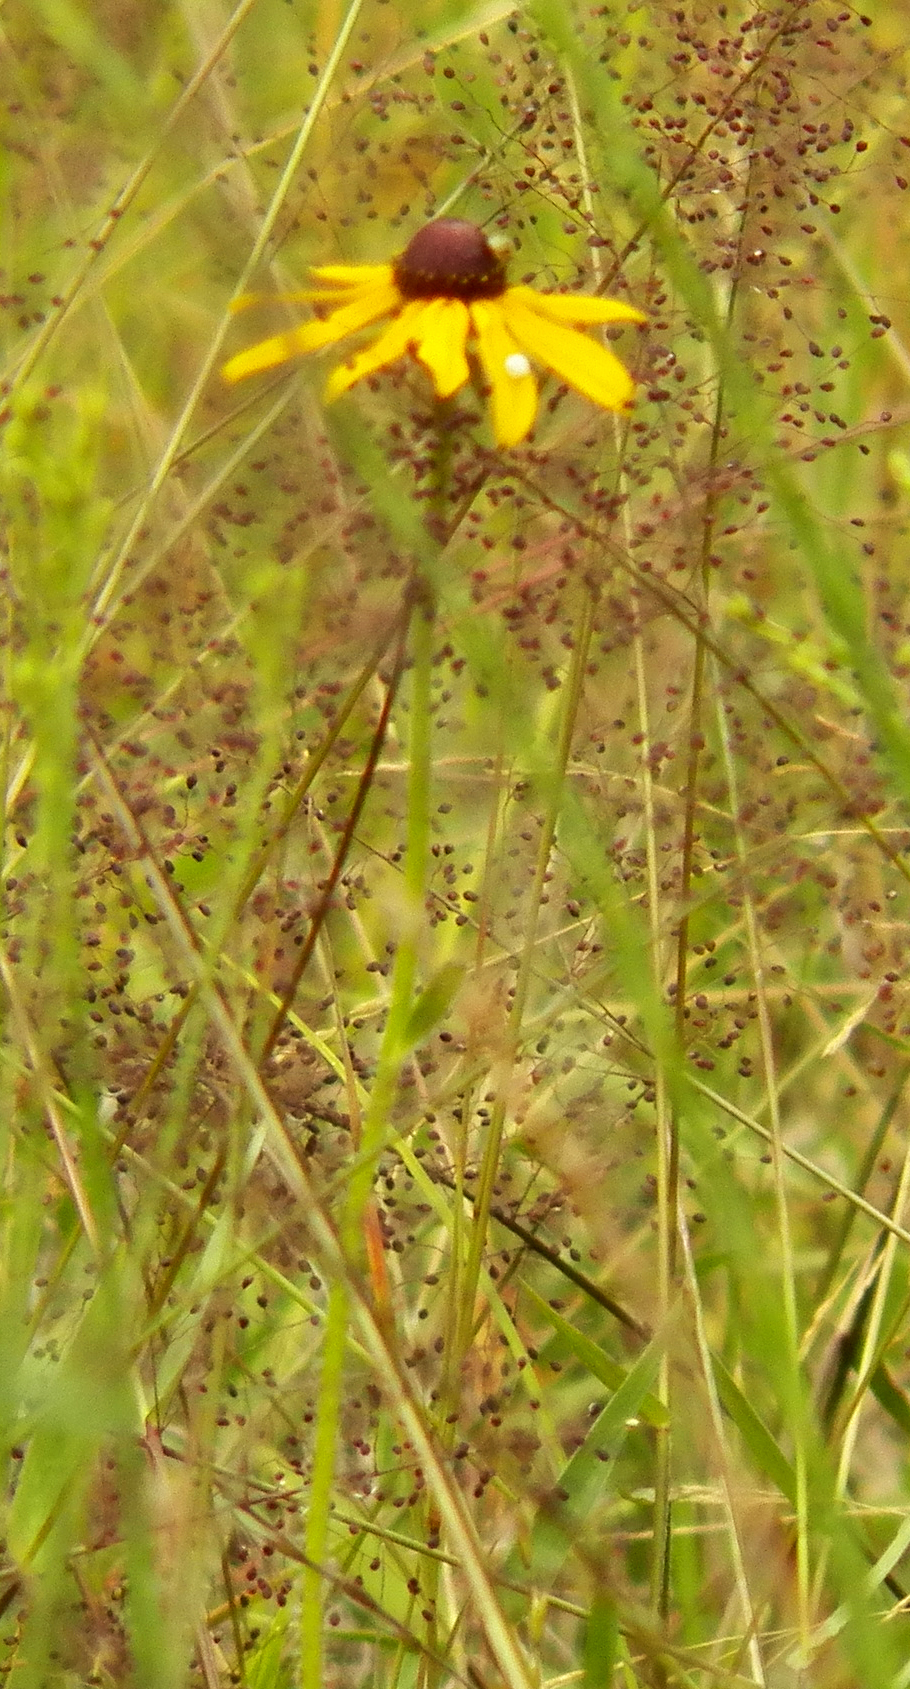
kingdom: Plantae
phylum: Tracheophyta
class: Magnoliopsida
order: Asterales
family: Asteraceae
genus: Rudbeckia
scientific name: Rudbeckia hirta
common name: Black-eyed-susan
